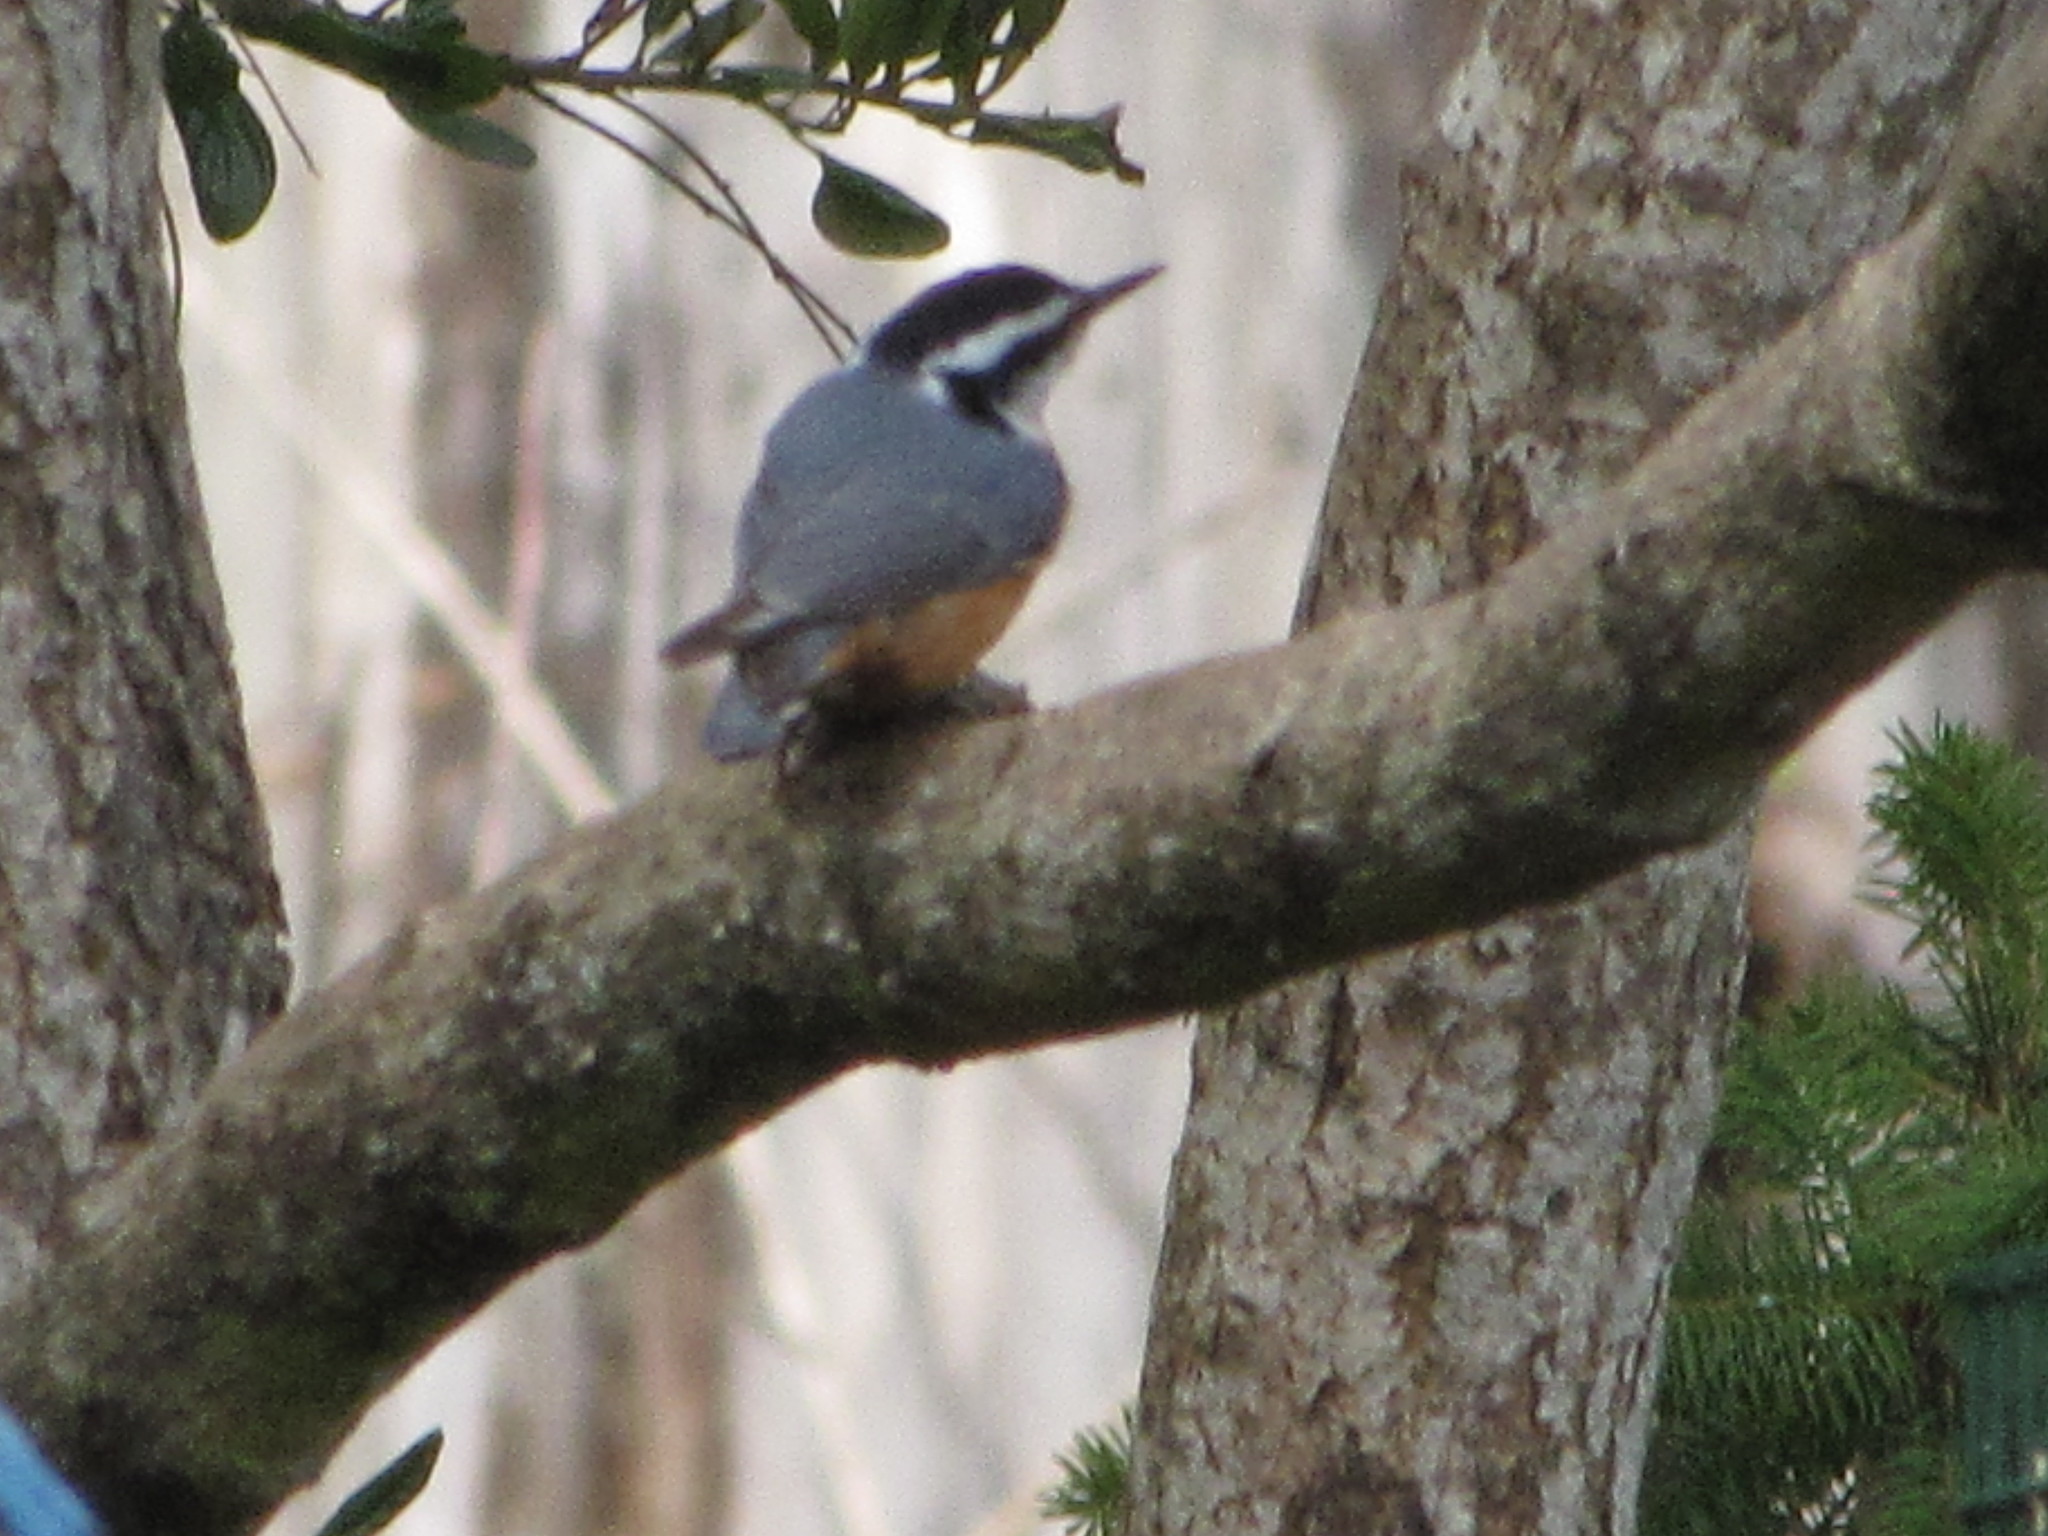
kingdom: Animalia
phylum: Chordata
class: Aves
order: Passeriformes
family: Sittidae
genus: Sitta
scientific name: Sitta canadensis
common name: Red-breasted nuthatch
